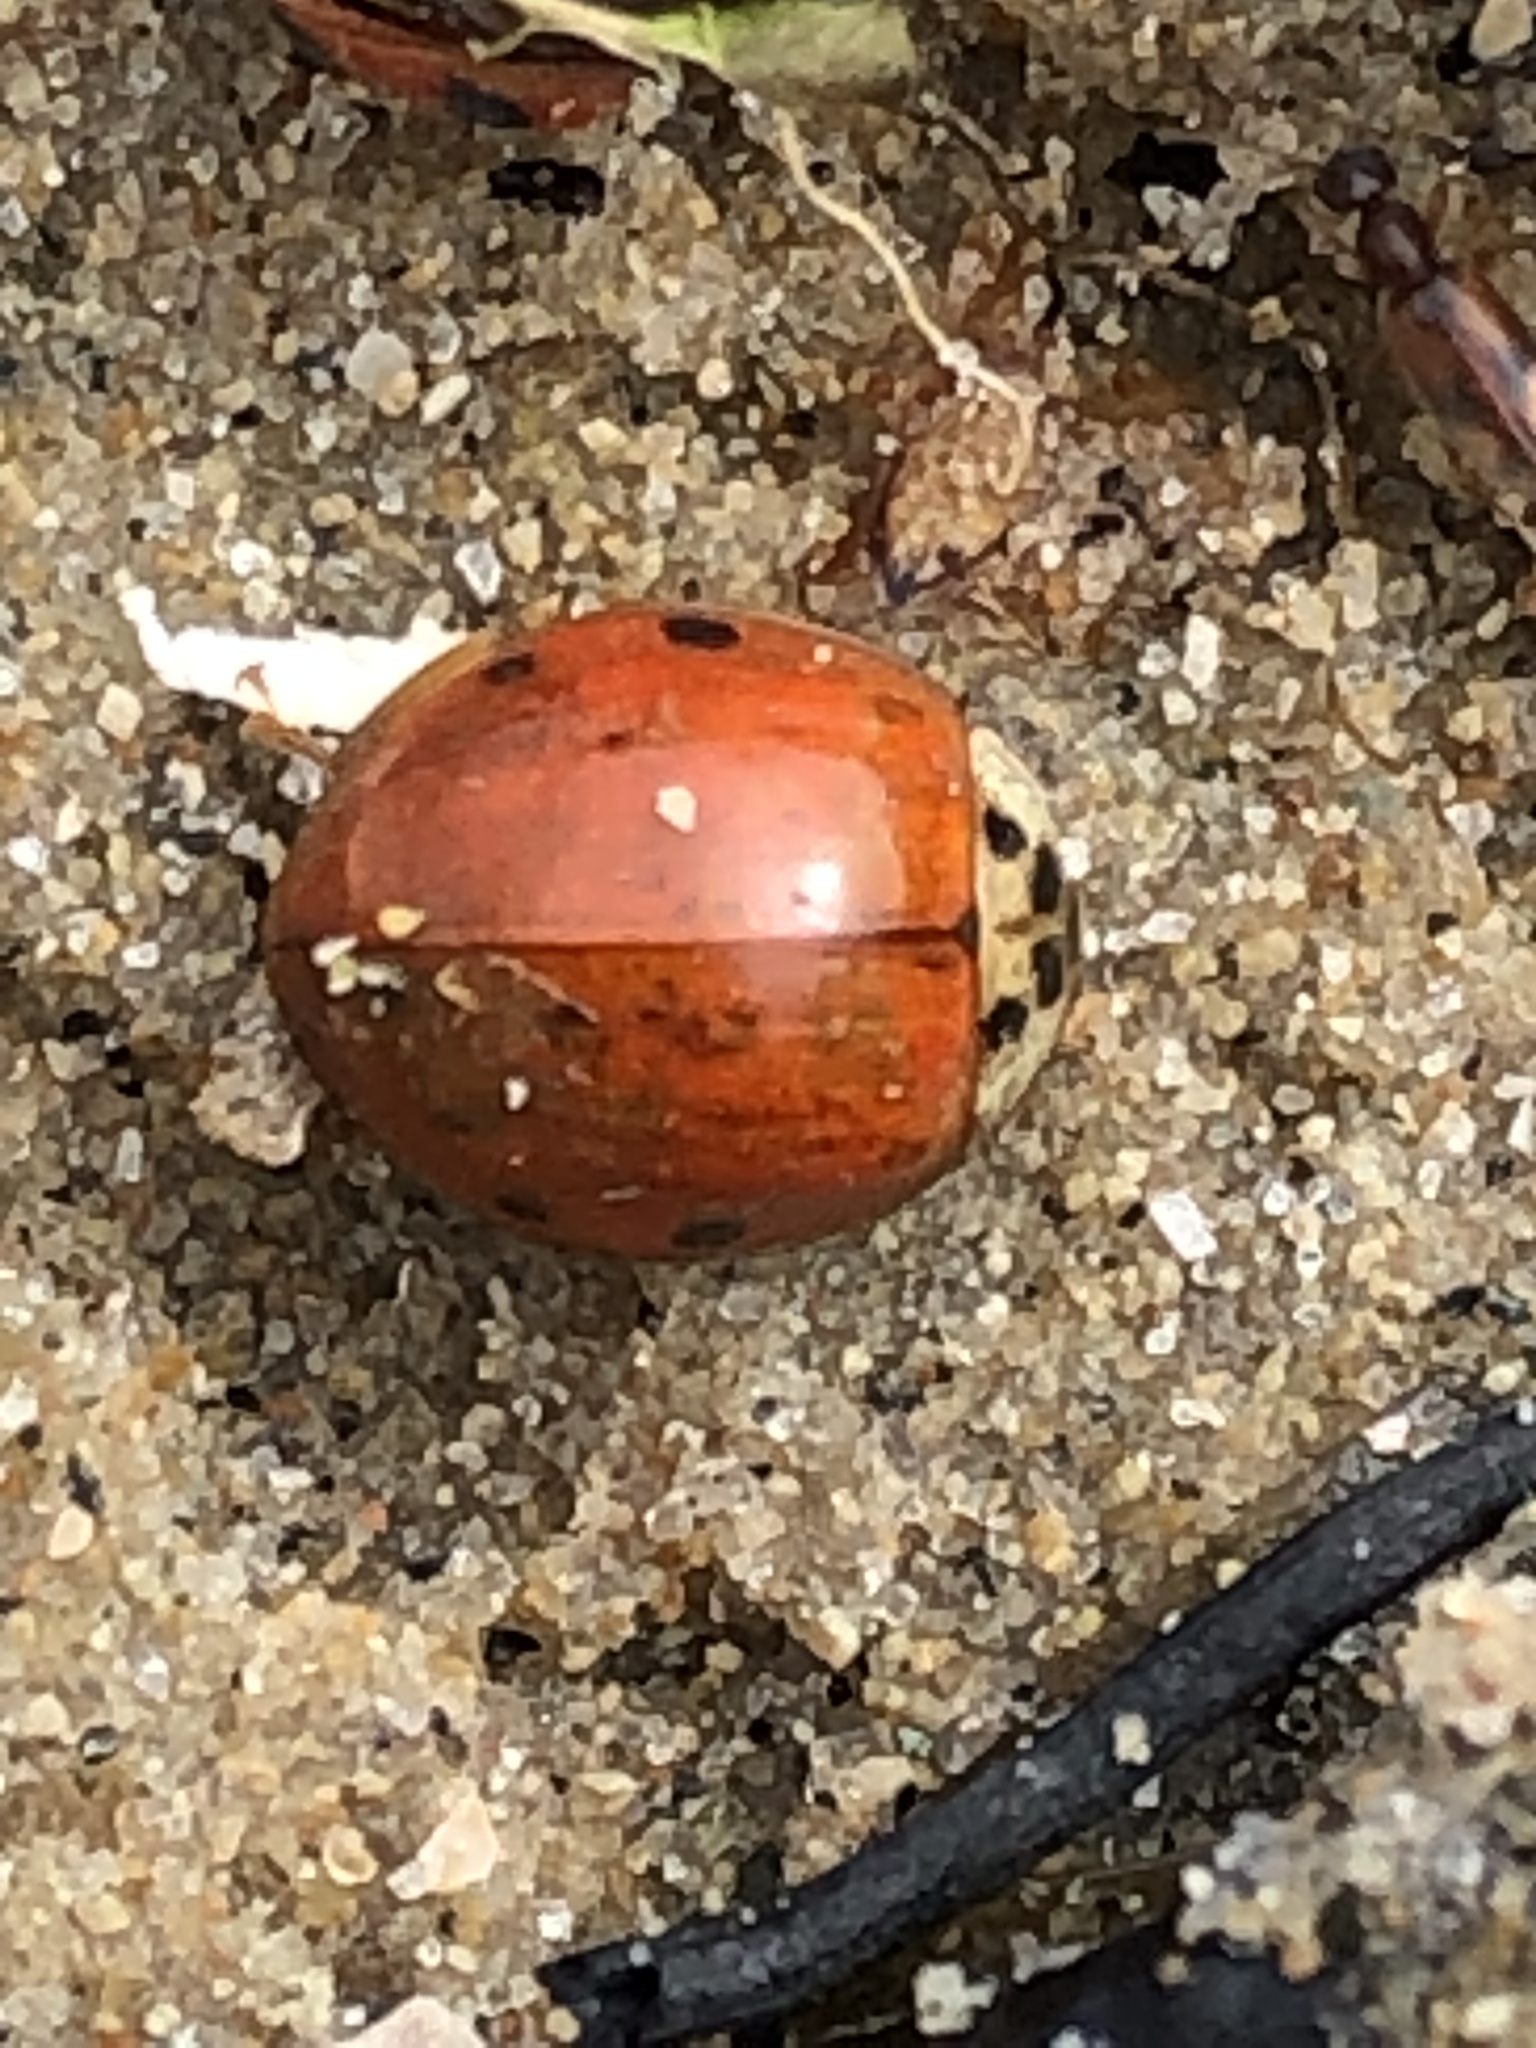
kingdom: Animalia
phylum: Arthropoda
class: Insecta
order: Coleoptera
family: Coccinellidae
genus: Harmonia
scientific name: Harmonia axyridis
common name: Harlequin ladybird
